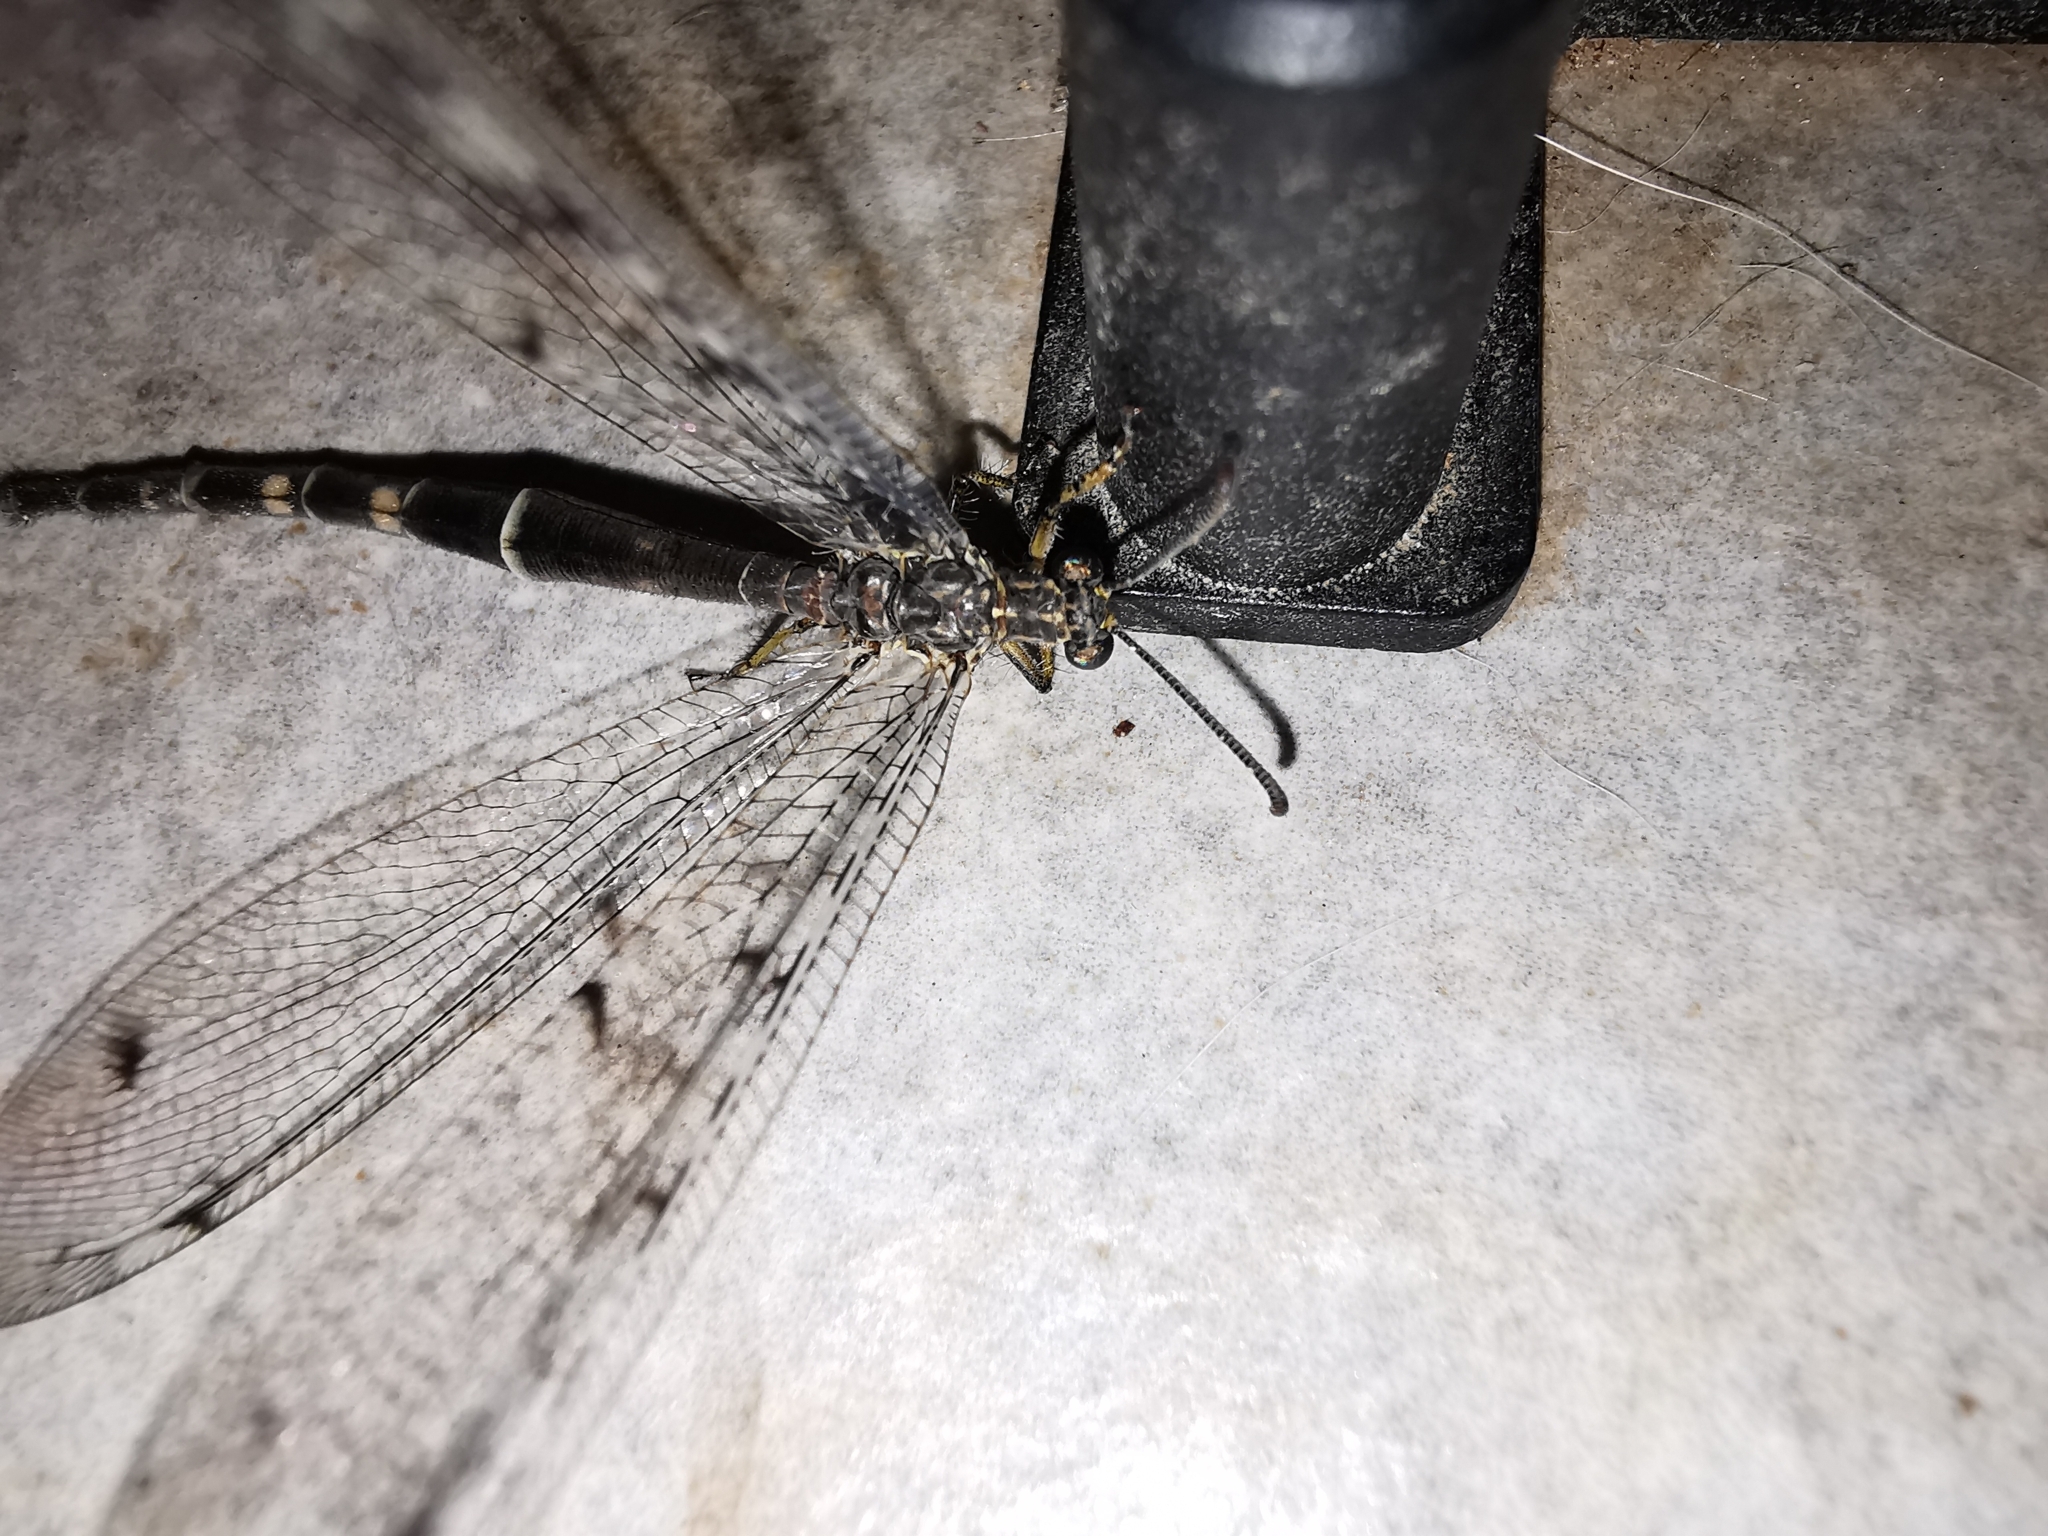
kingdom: Animalia
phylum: Arthropoda
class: Insecta
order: Neuroptera
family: Myrmeleontidae
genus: Distoleon
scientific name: Distoleon tetragrammicus
